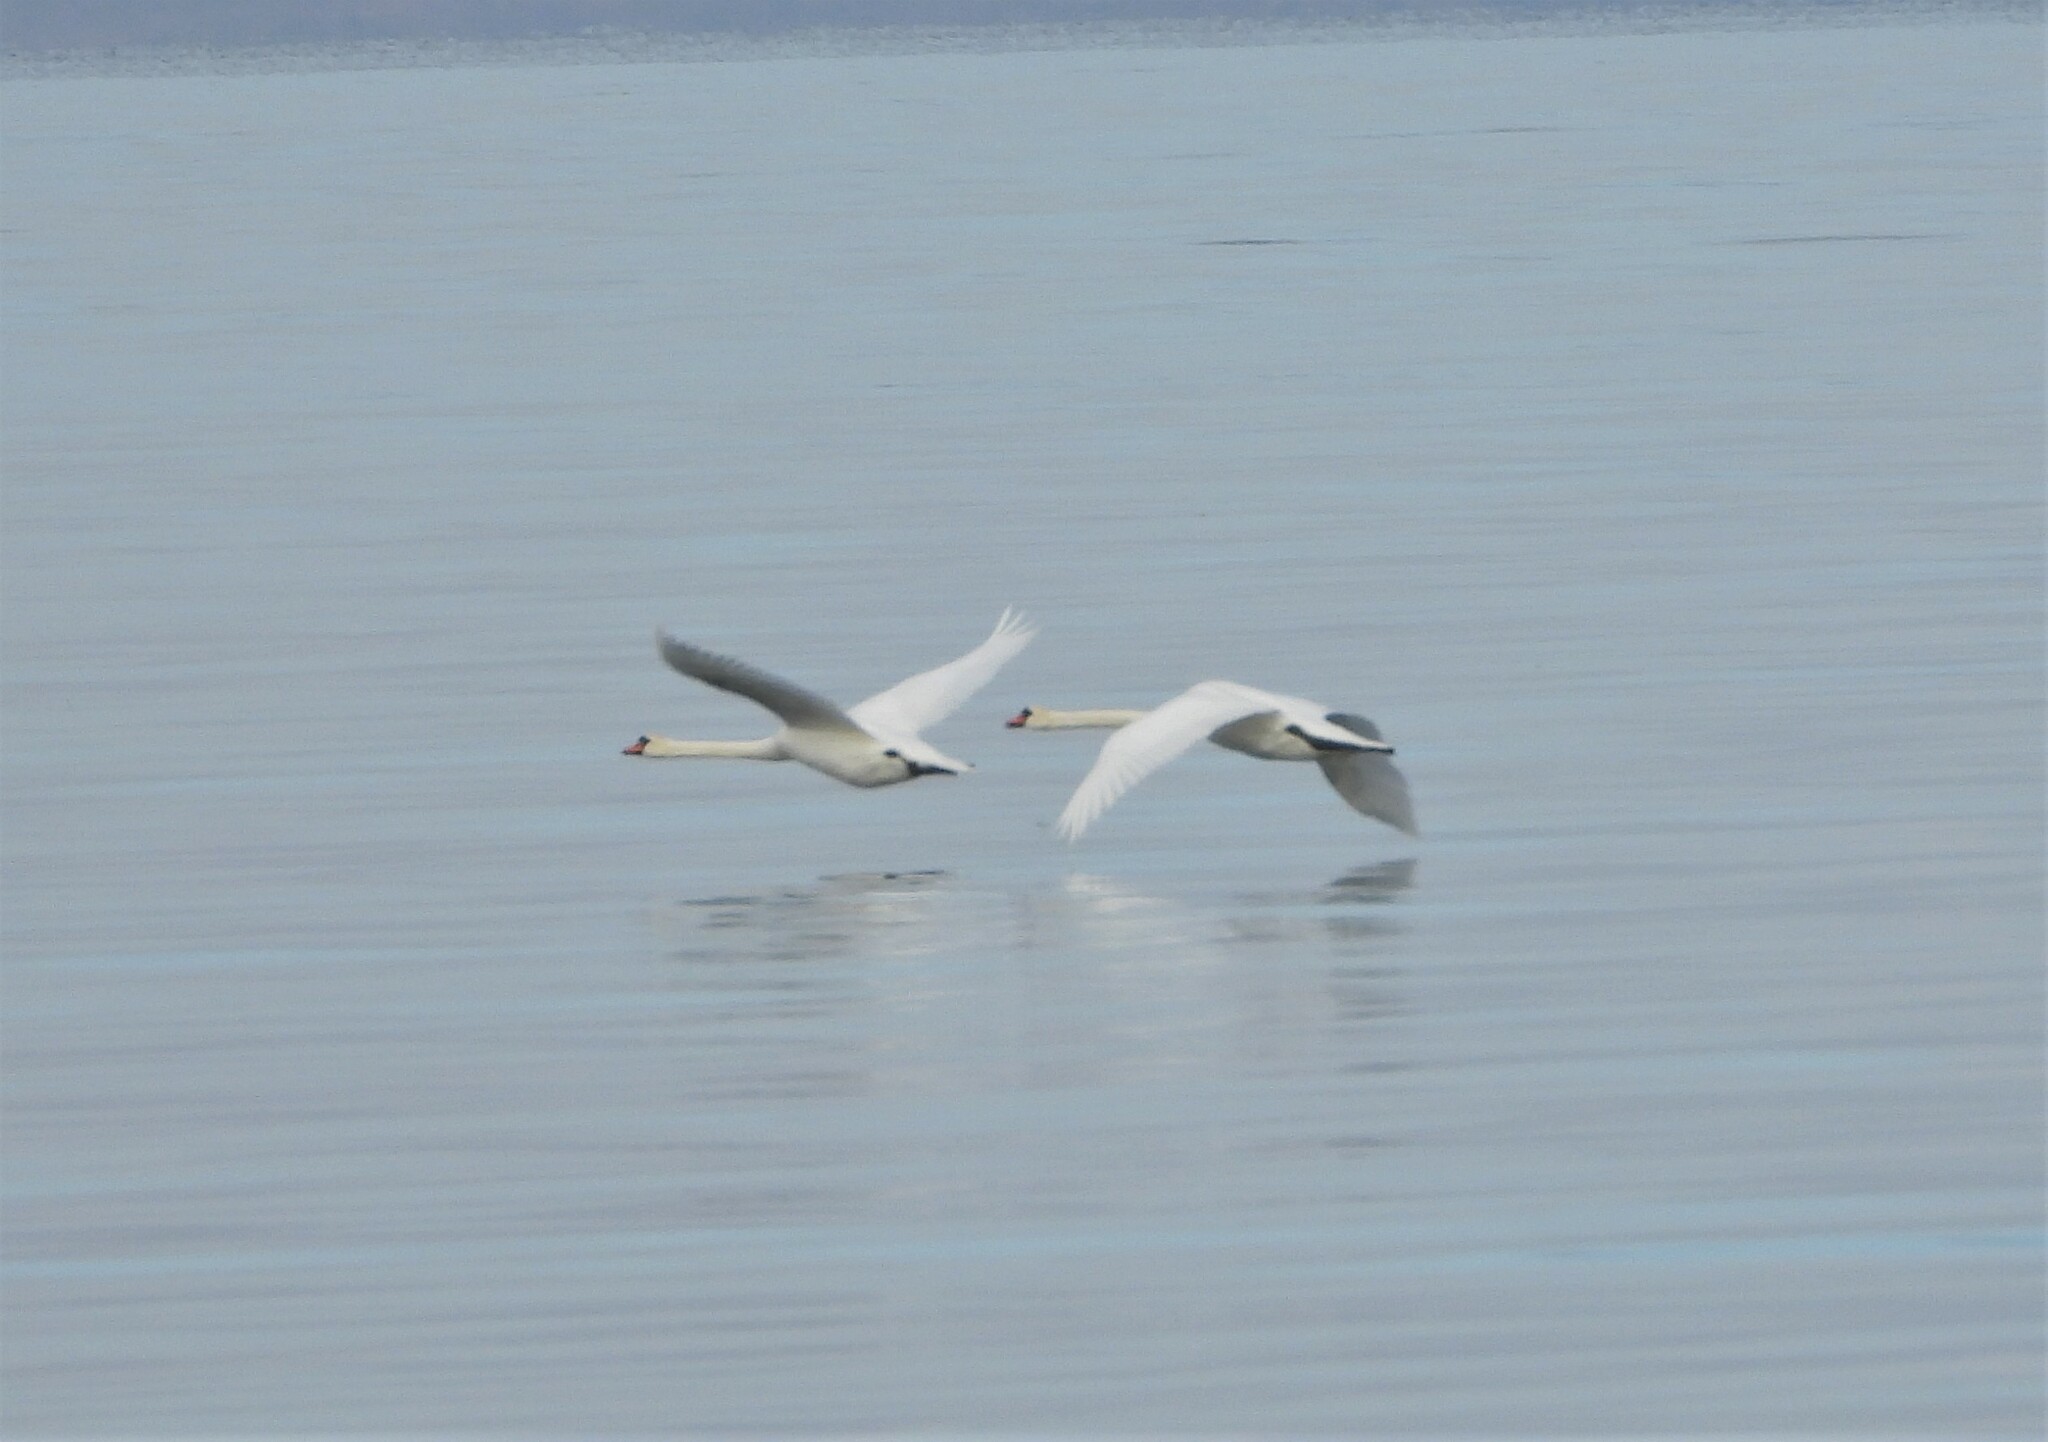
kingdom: Animalia
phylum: Chordata
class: Aves
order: Anseriformes
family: Anatidae
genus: Cygnus
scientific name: Cygnus olor
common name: Mute swan
